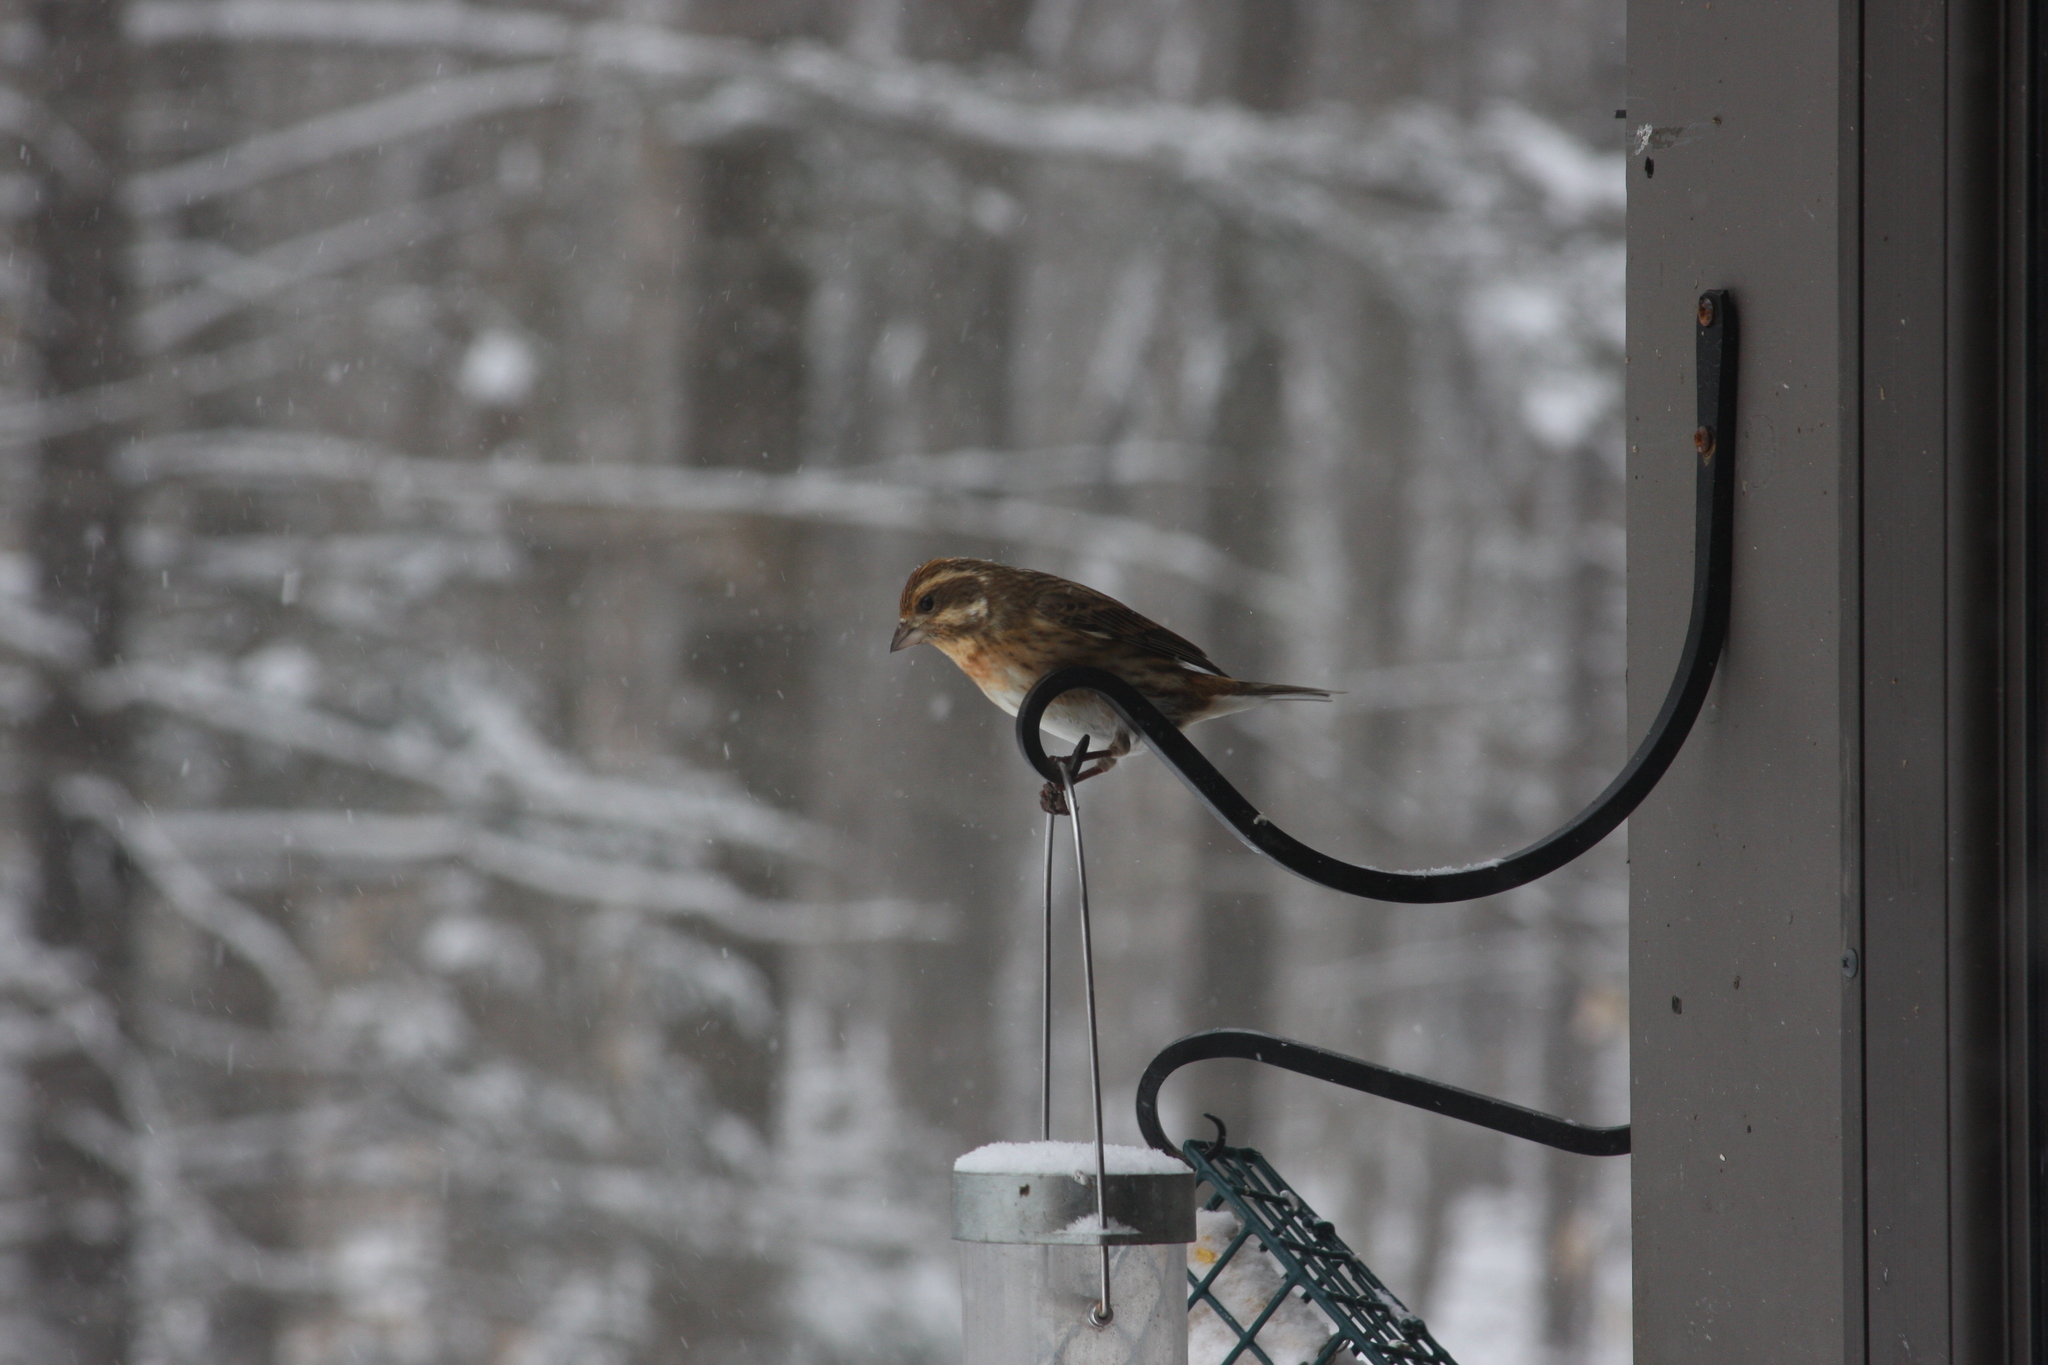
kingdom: Animalia
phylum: Chordata
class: Aves
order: Passeriformes
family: Fringillidae
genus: Haemorhous
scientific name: Haemorhous purpureus
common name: Purple finch
